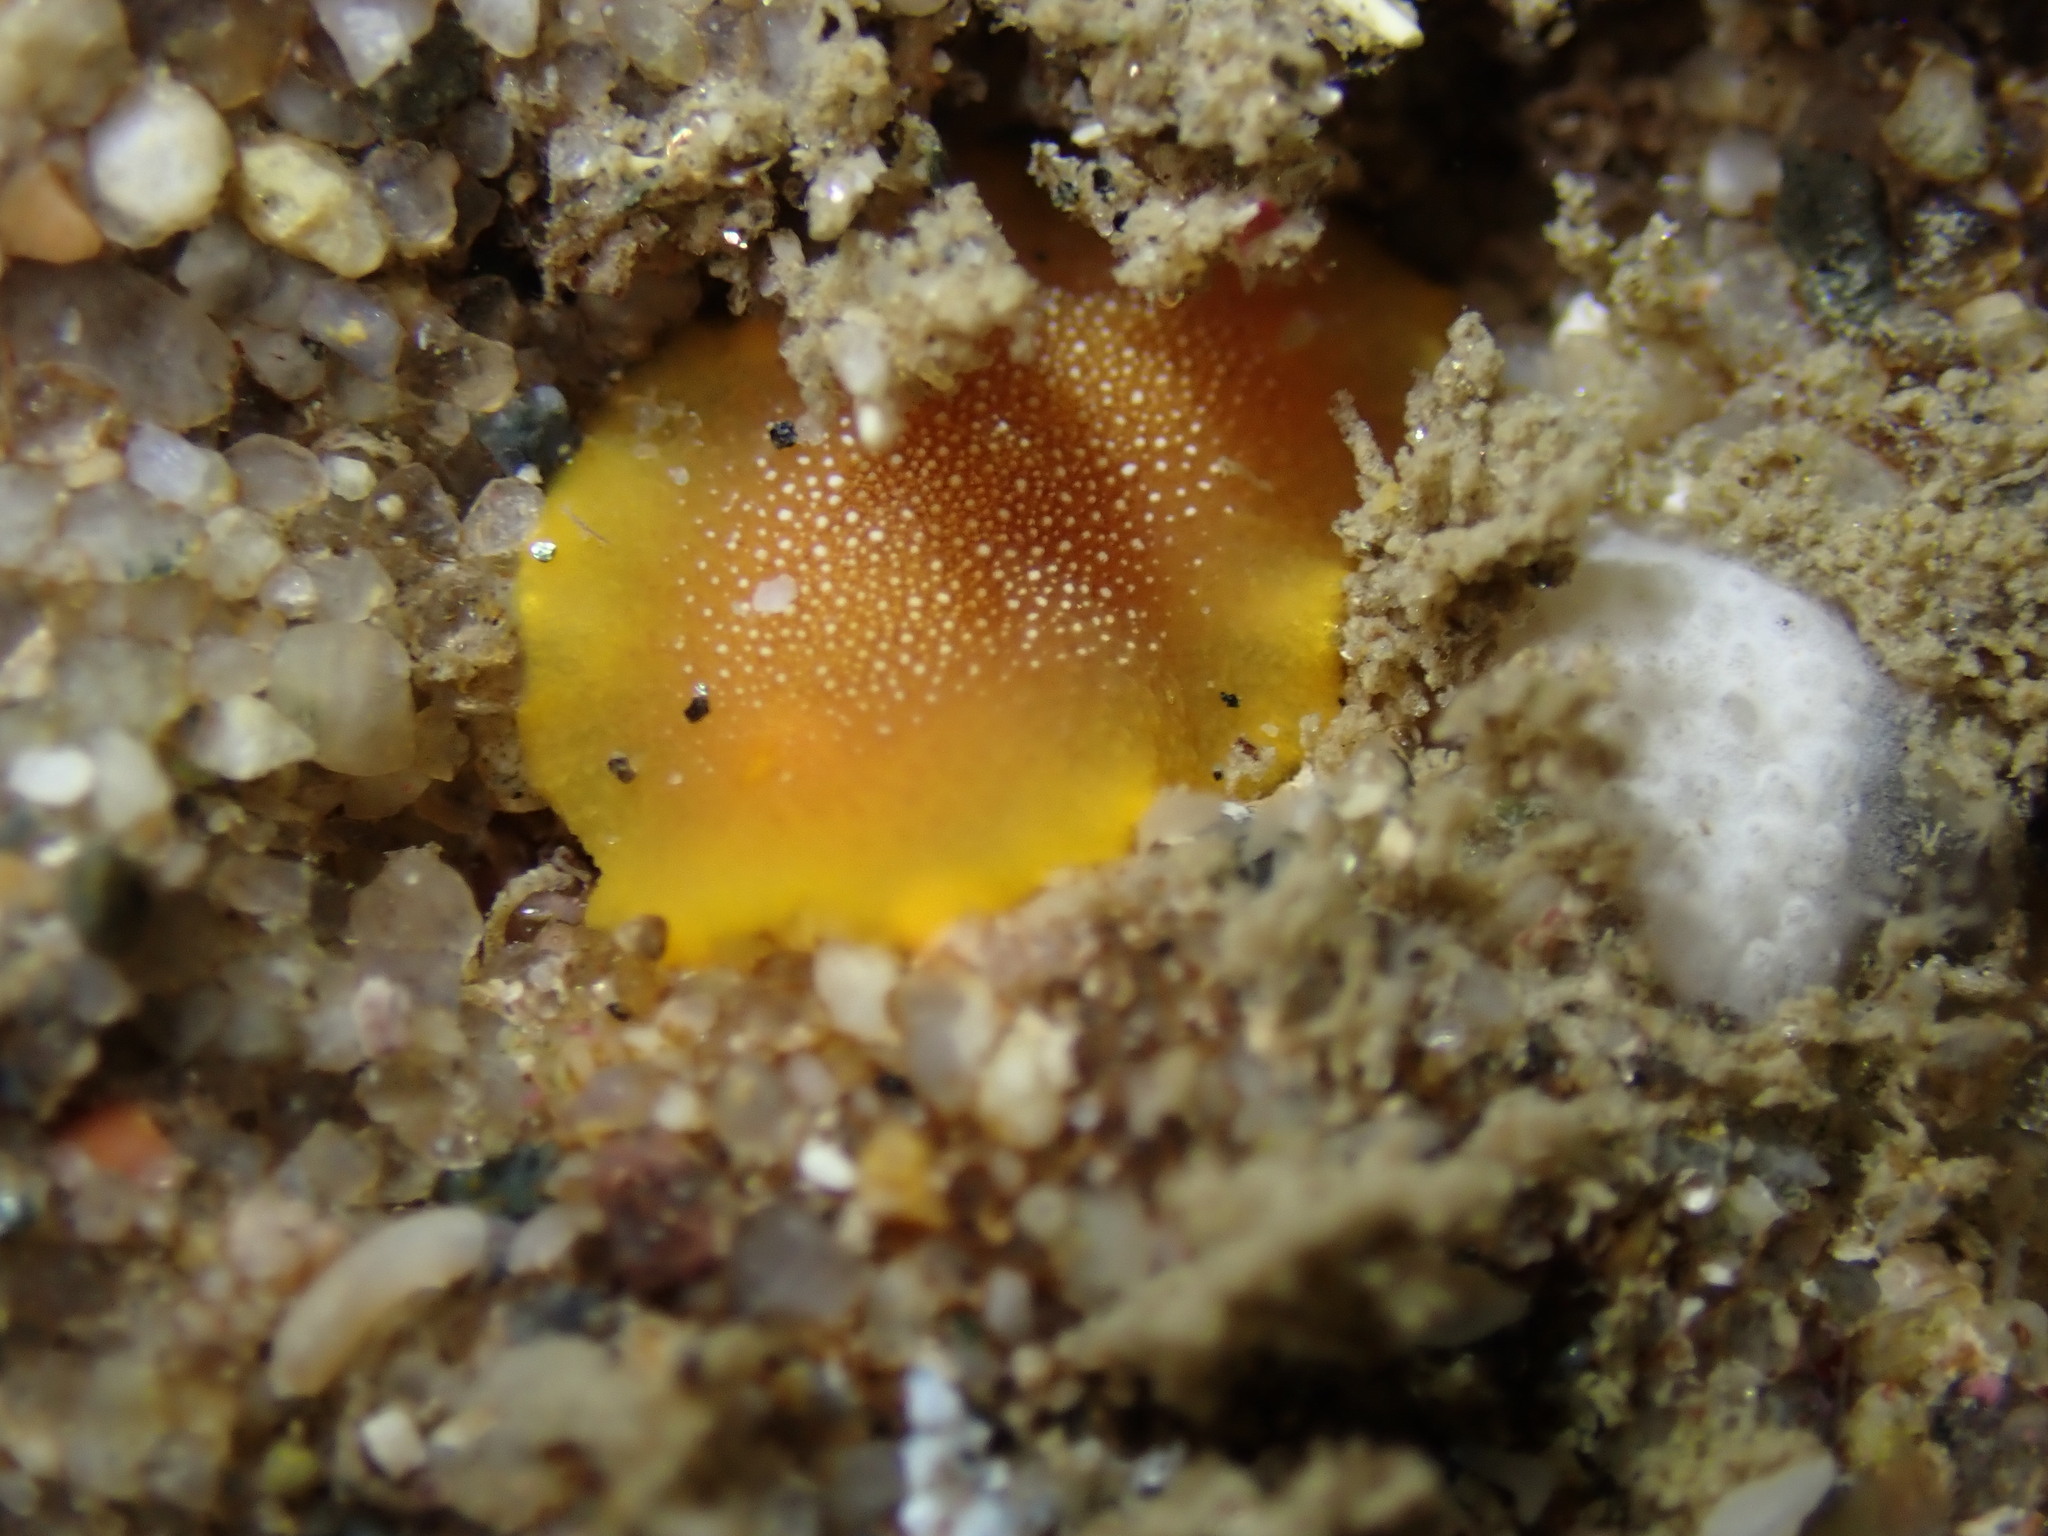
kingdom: Animalia
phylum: Mollusca
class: Gastropoda
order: Nudibranchia
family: Dendrodorididae
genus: Doriopsilla
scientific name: Doriopsilla gemela
